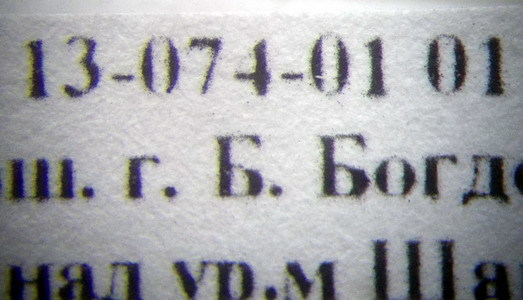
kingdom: Animalia
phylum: Arthropoda
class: Insecta
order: Hymenoptera
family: Formicidae
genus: Camponotus
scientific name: Camponotus fedtschenkoi
